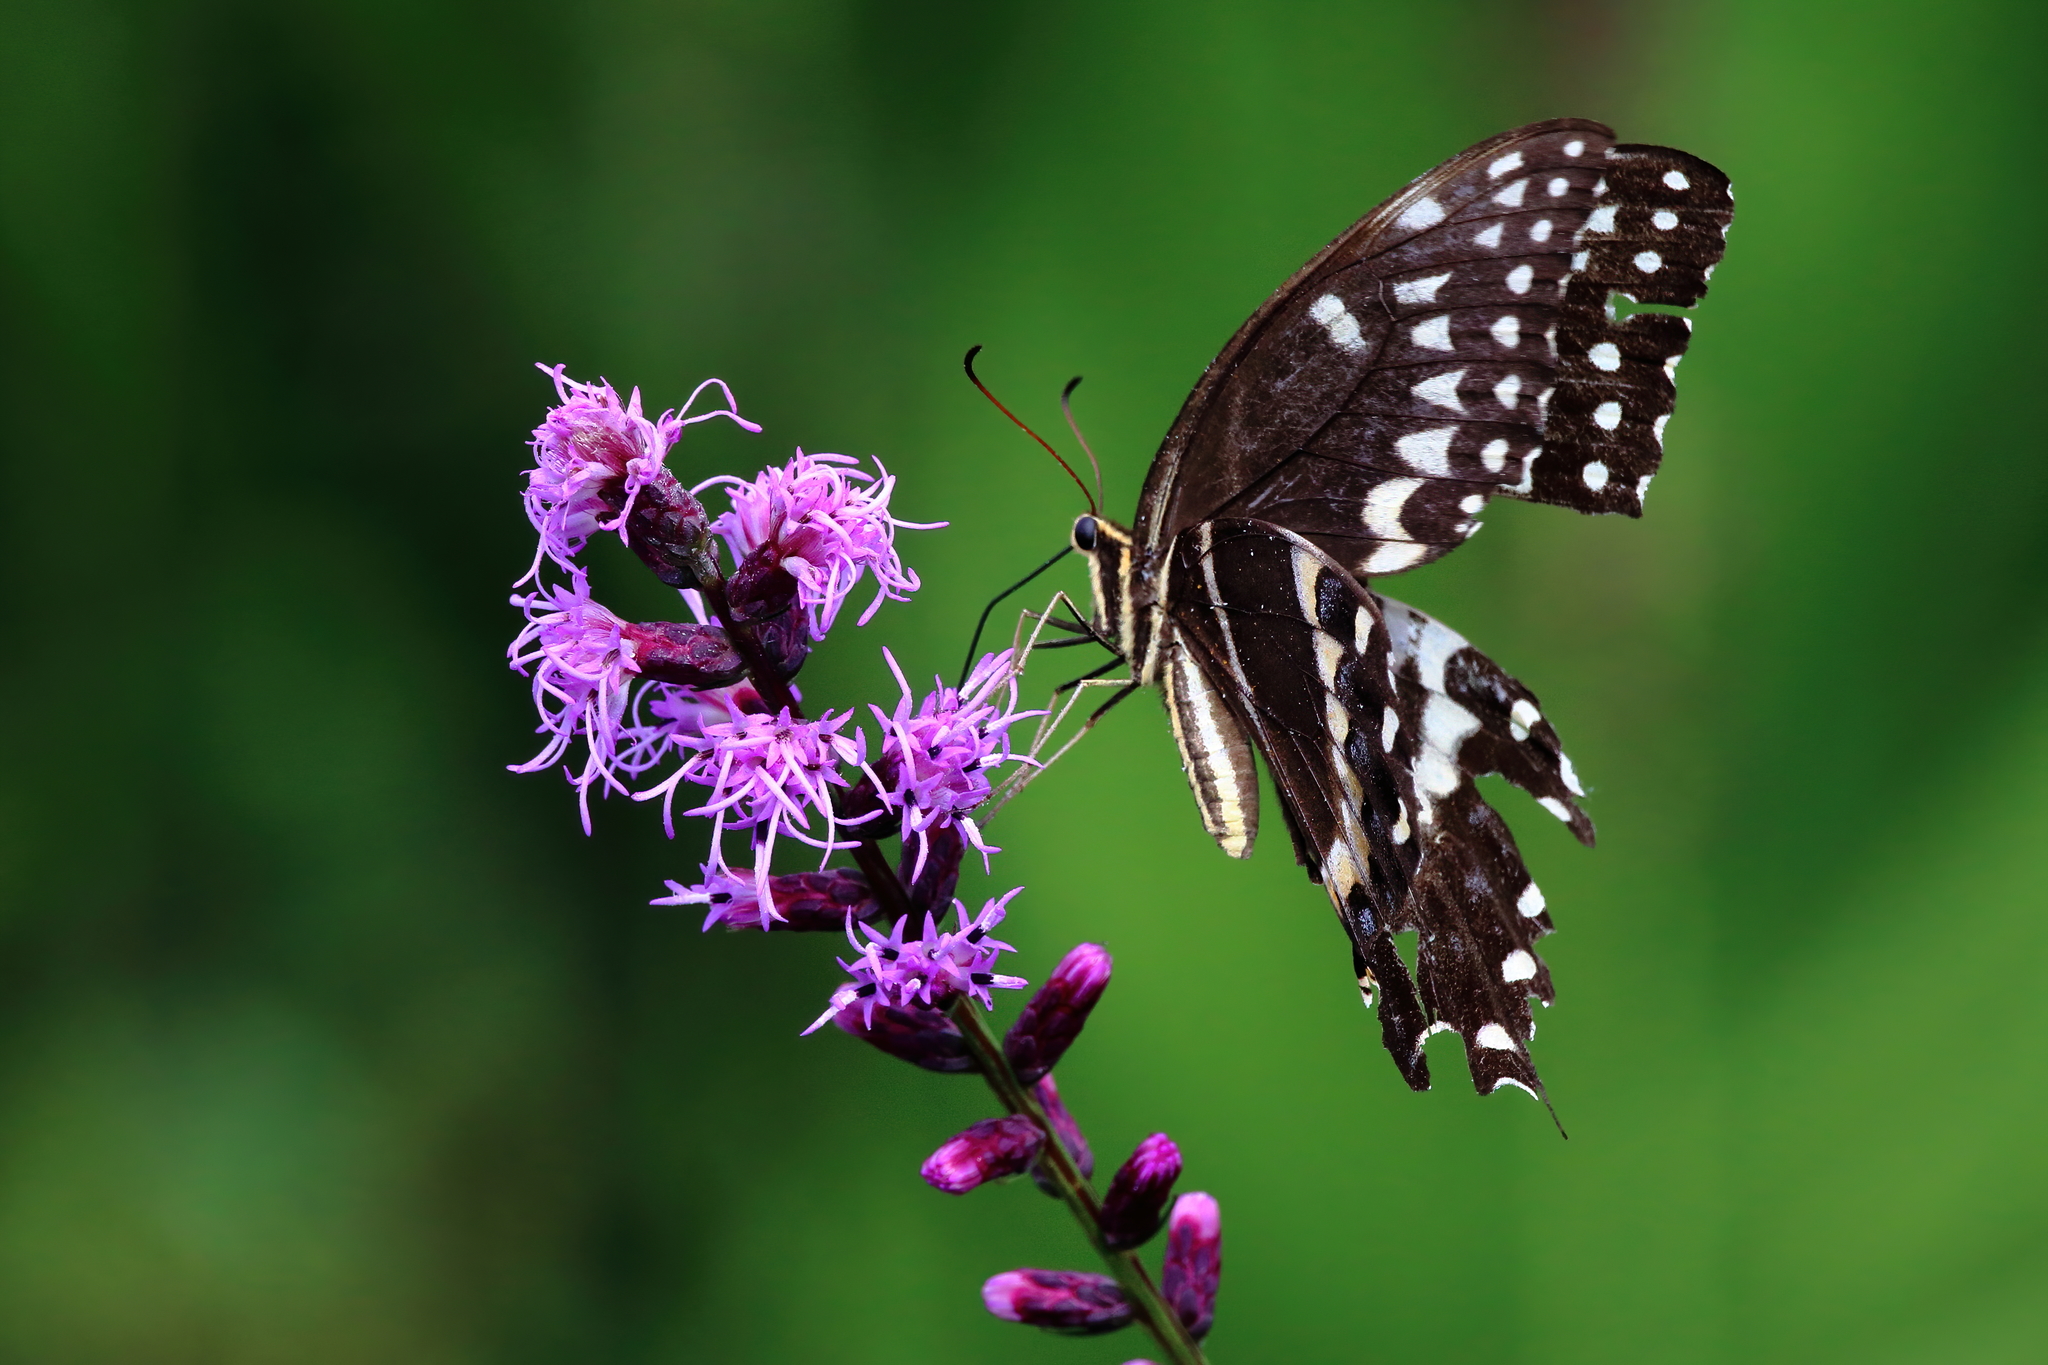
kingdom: Animalia
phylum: Arthropoda
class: Insecta
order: Lepidoptera
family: Papilionidae
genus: Papilio
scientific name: Papilio palamedes
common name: Palamedes swallowtail
